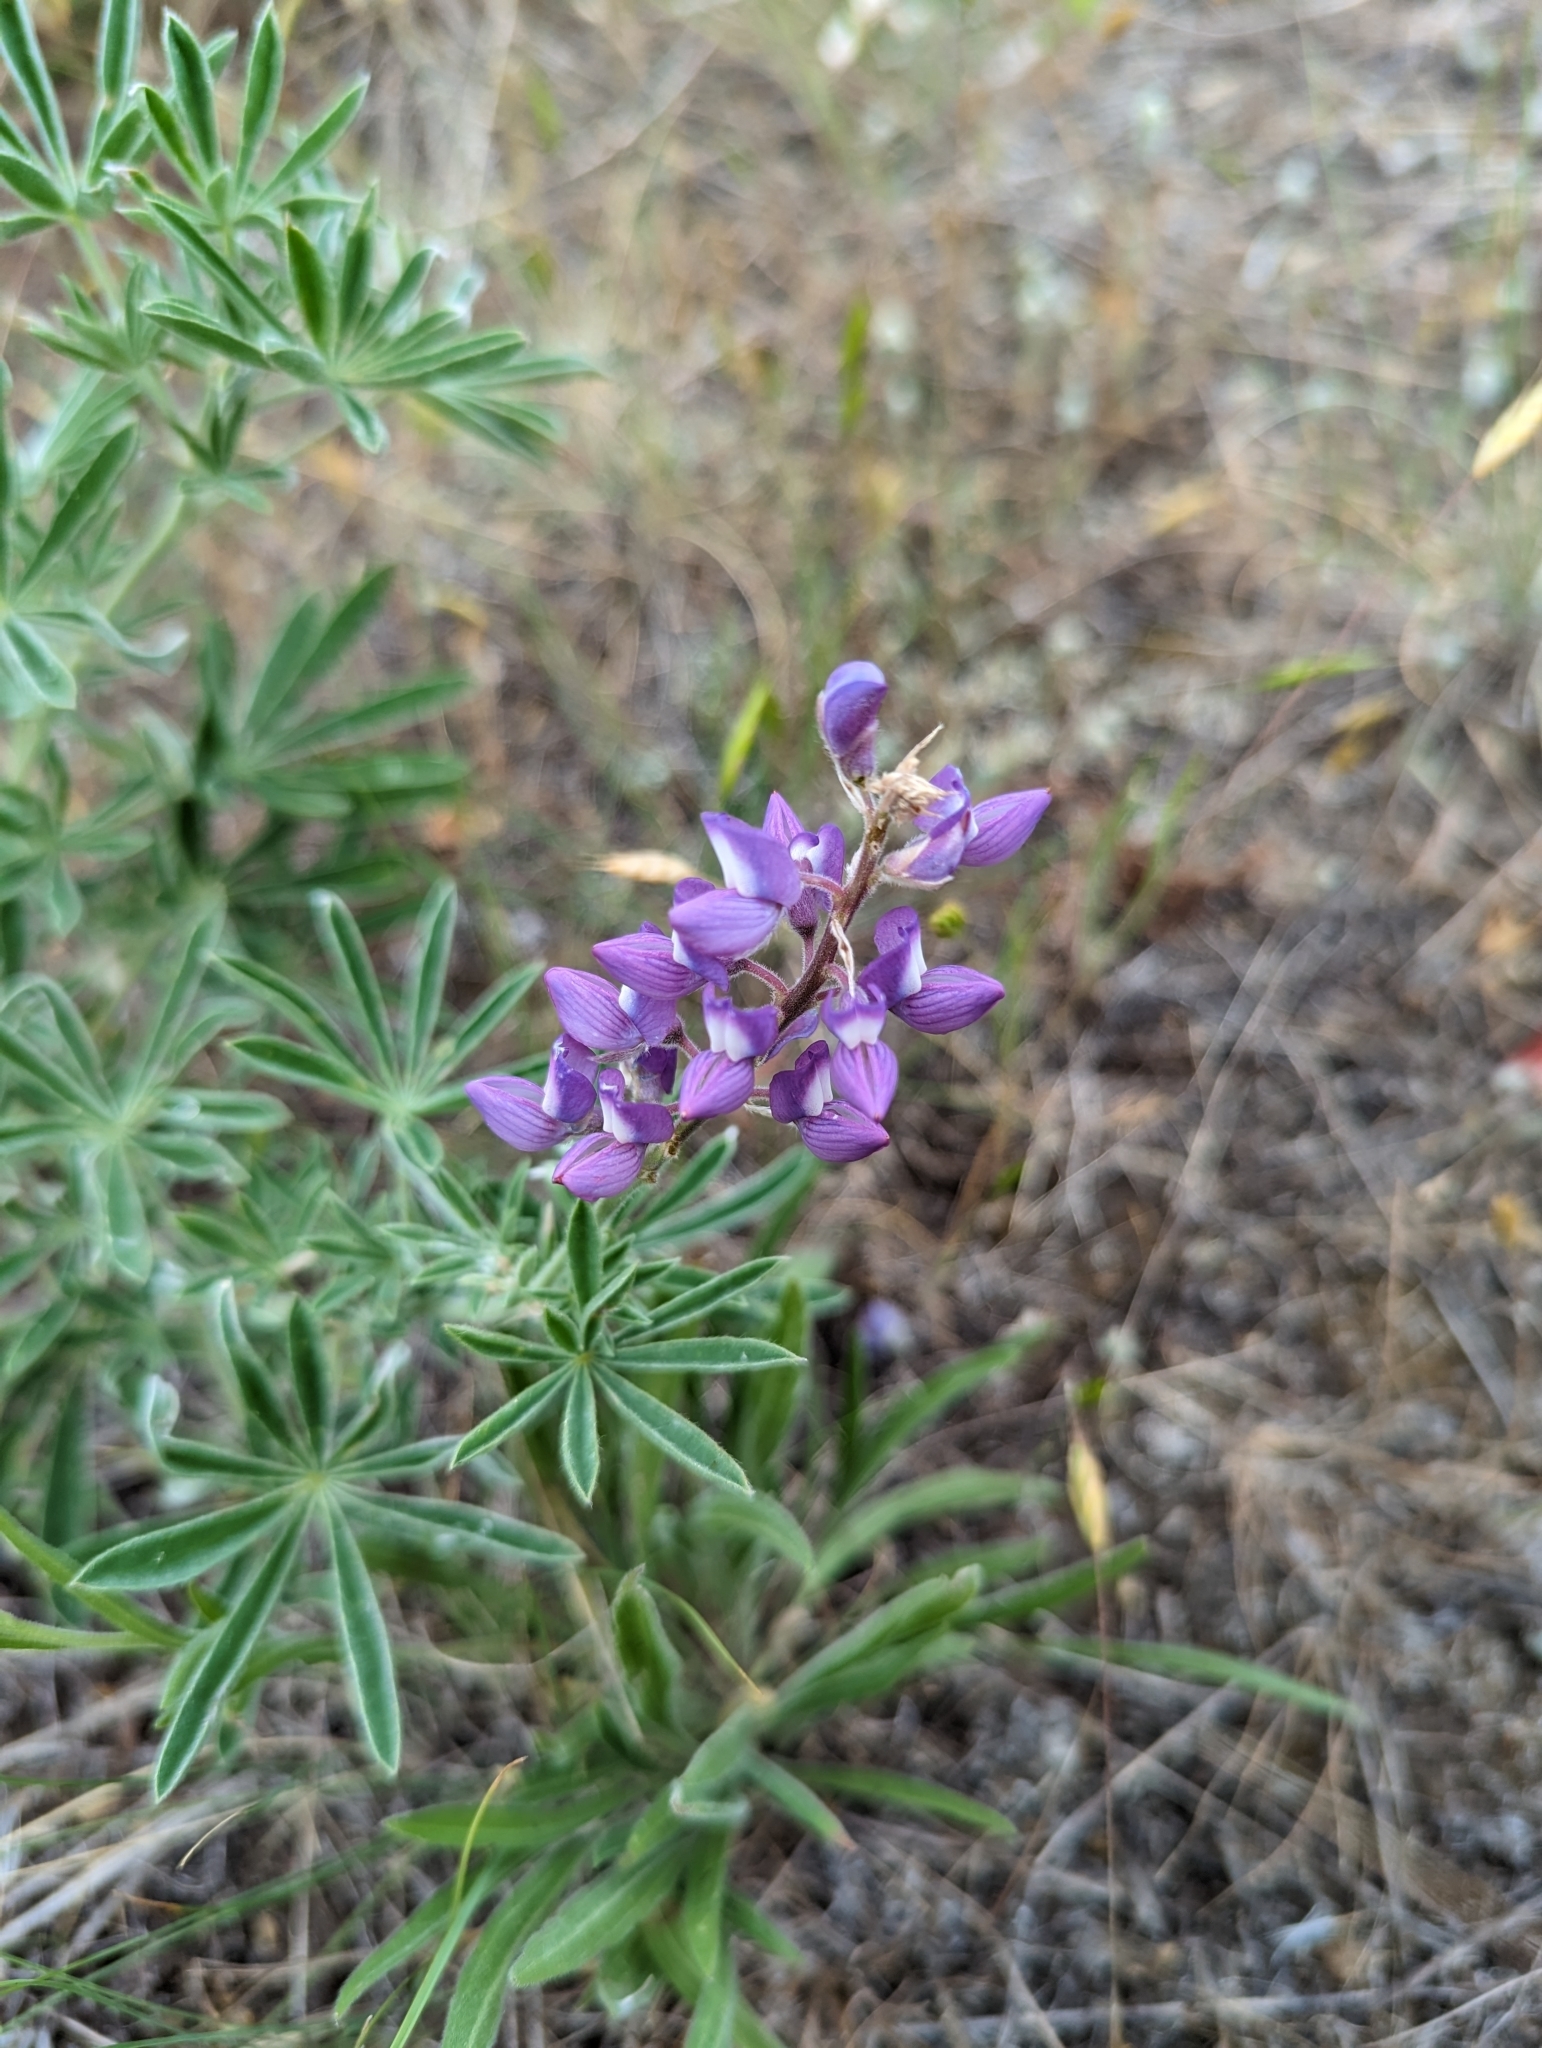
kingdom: Plantae
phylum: Tracheophyta
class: Magnoliopsida
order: Fabales
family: Fabaceae
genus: Lupinus
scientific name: Lupinus sericeus
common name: Silky lupine
